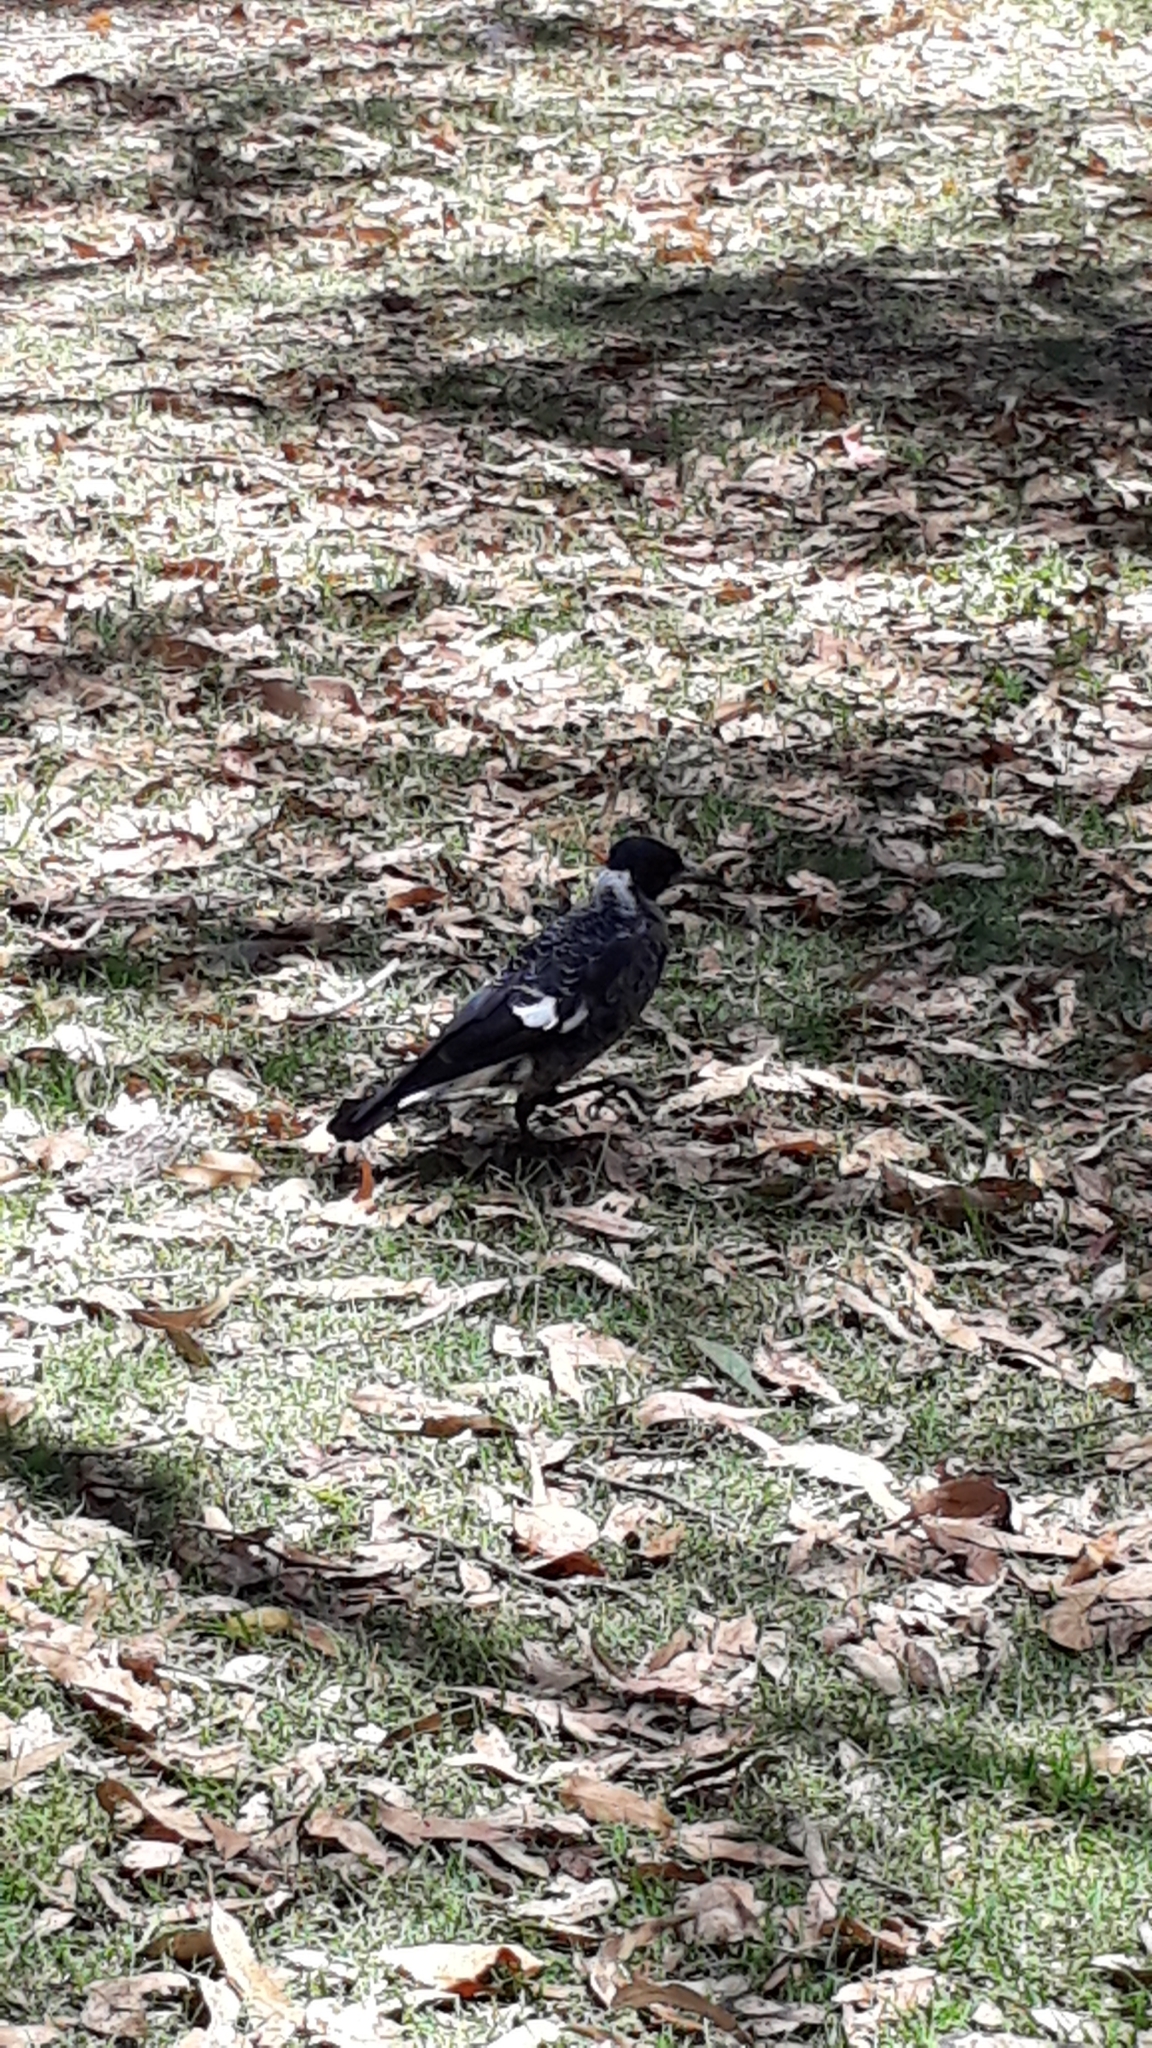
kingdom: Animalia
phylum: Chordata
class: Aves
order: Passeriformes
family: Cracticidae
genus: Gymnorhina
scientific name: Gymnorhina tibicen
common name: Australian magpie
